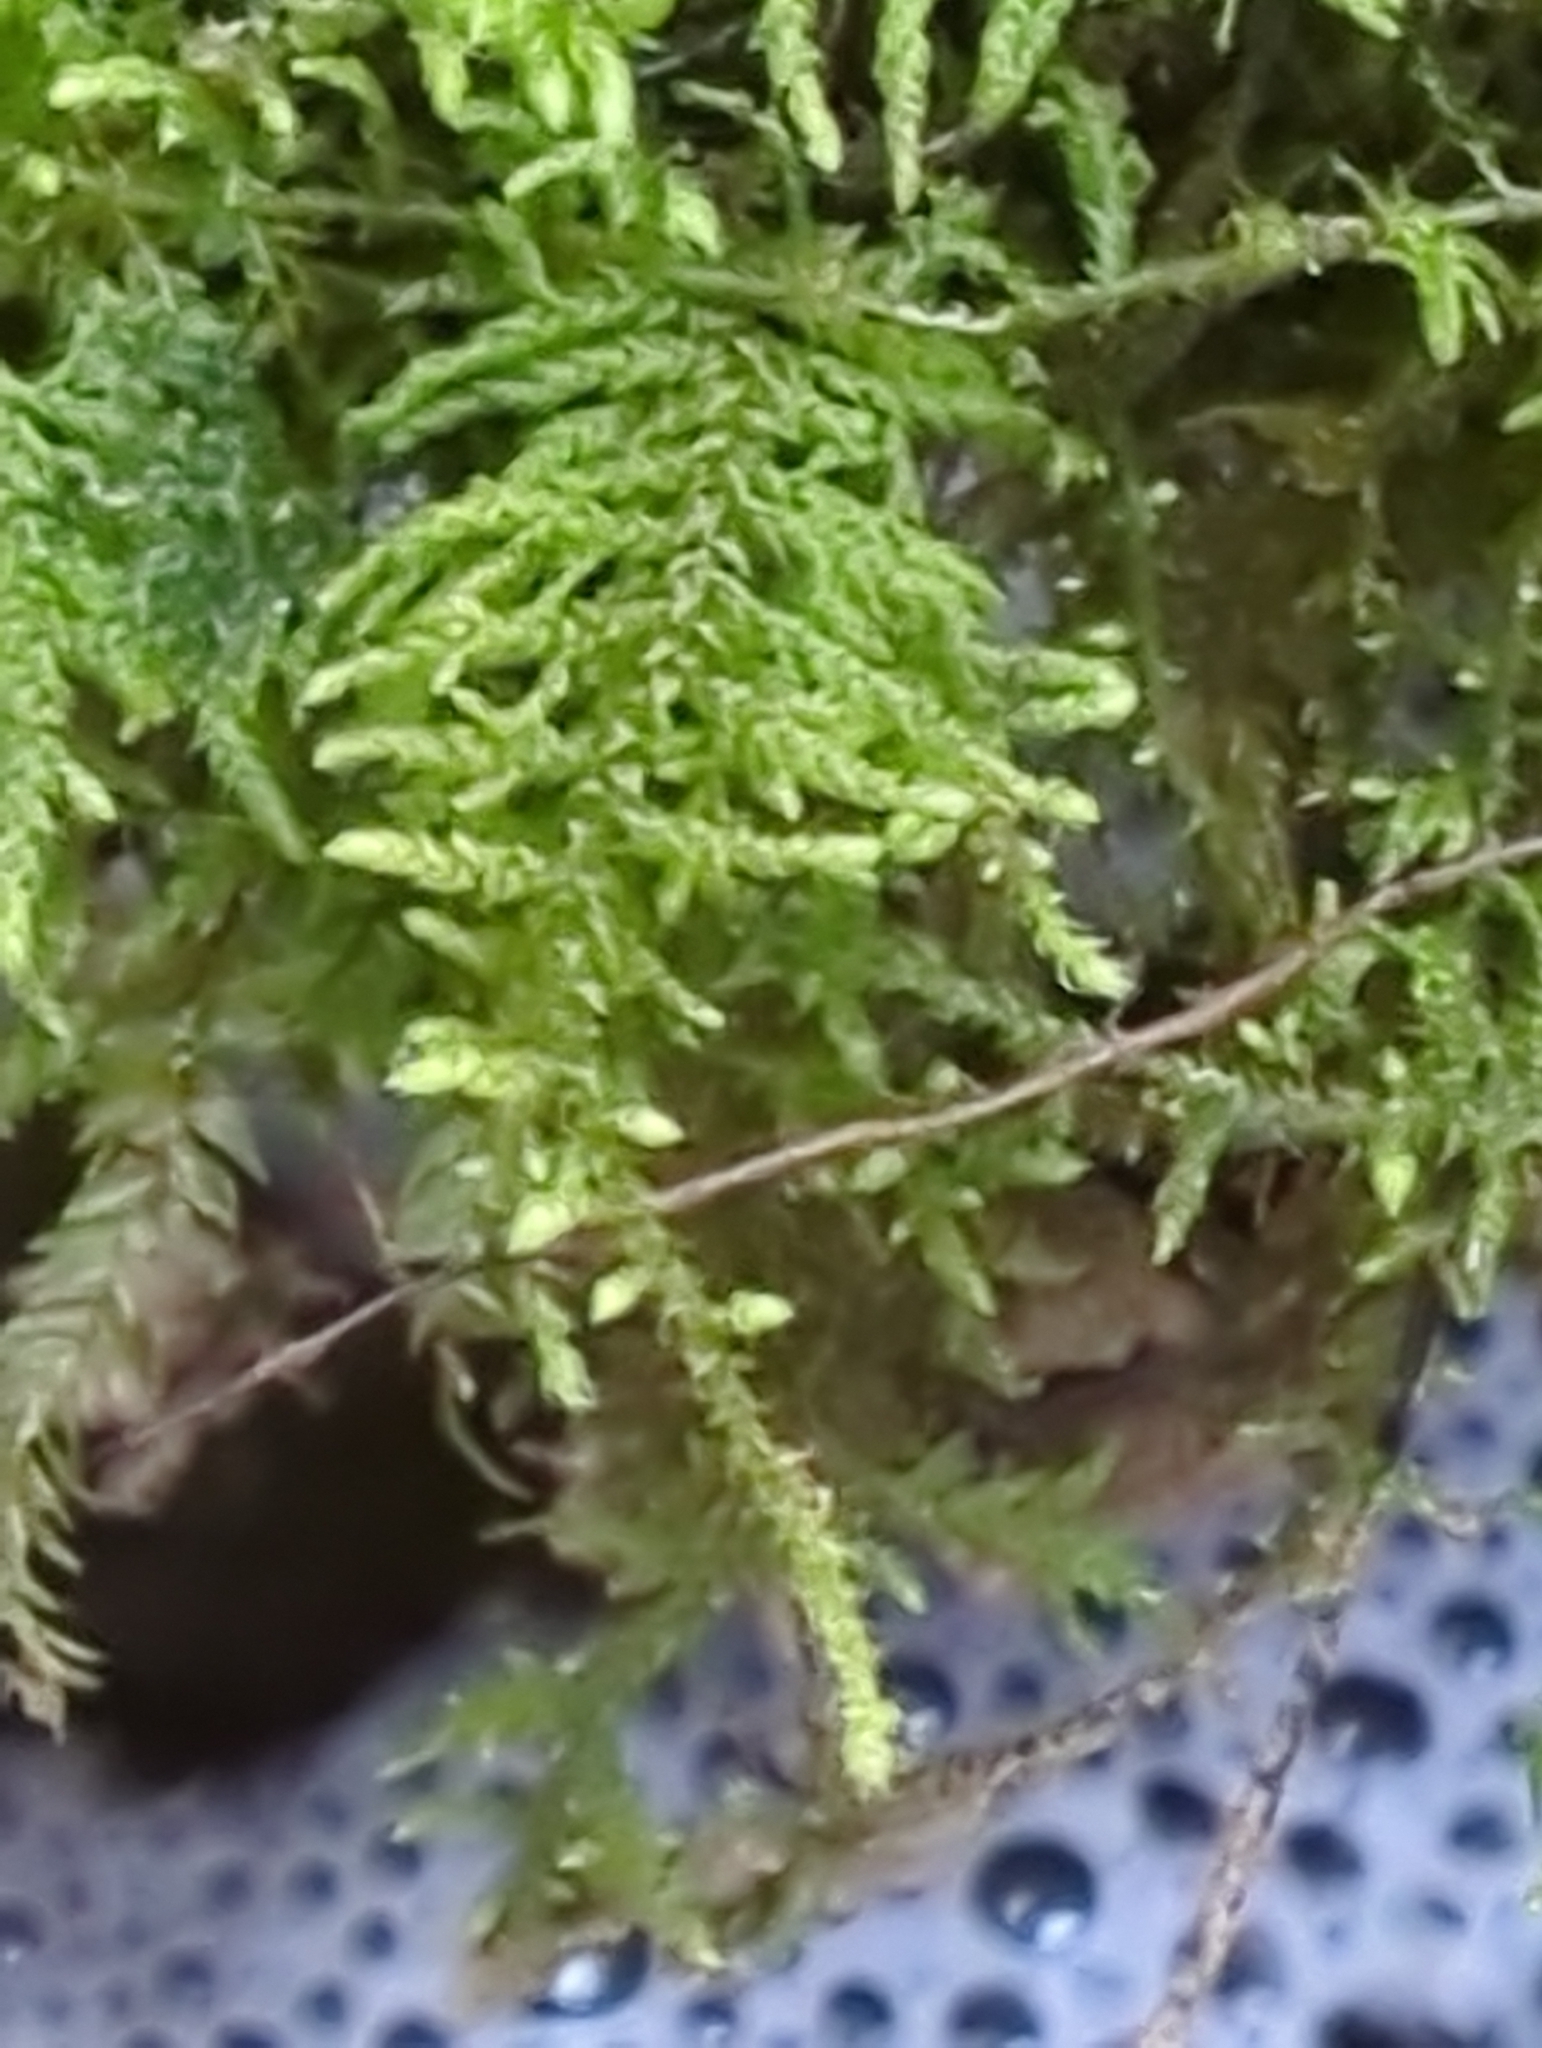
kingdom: Plantae
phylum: Bryophyta
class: Bryopsida
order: Hypnales
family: Thuidiaceae
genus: Thuidiopsis
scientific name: Thuidiopsis sparsa
